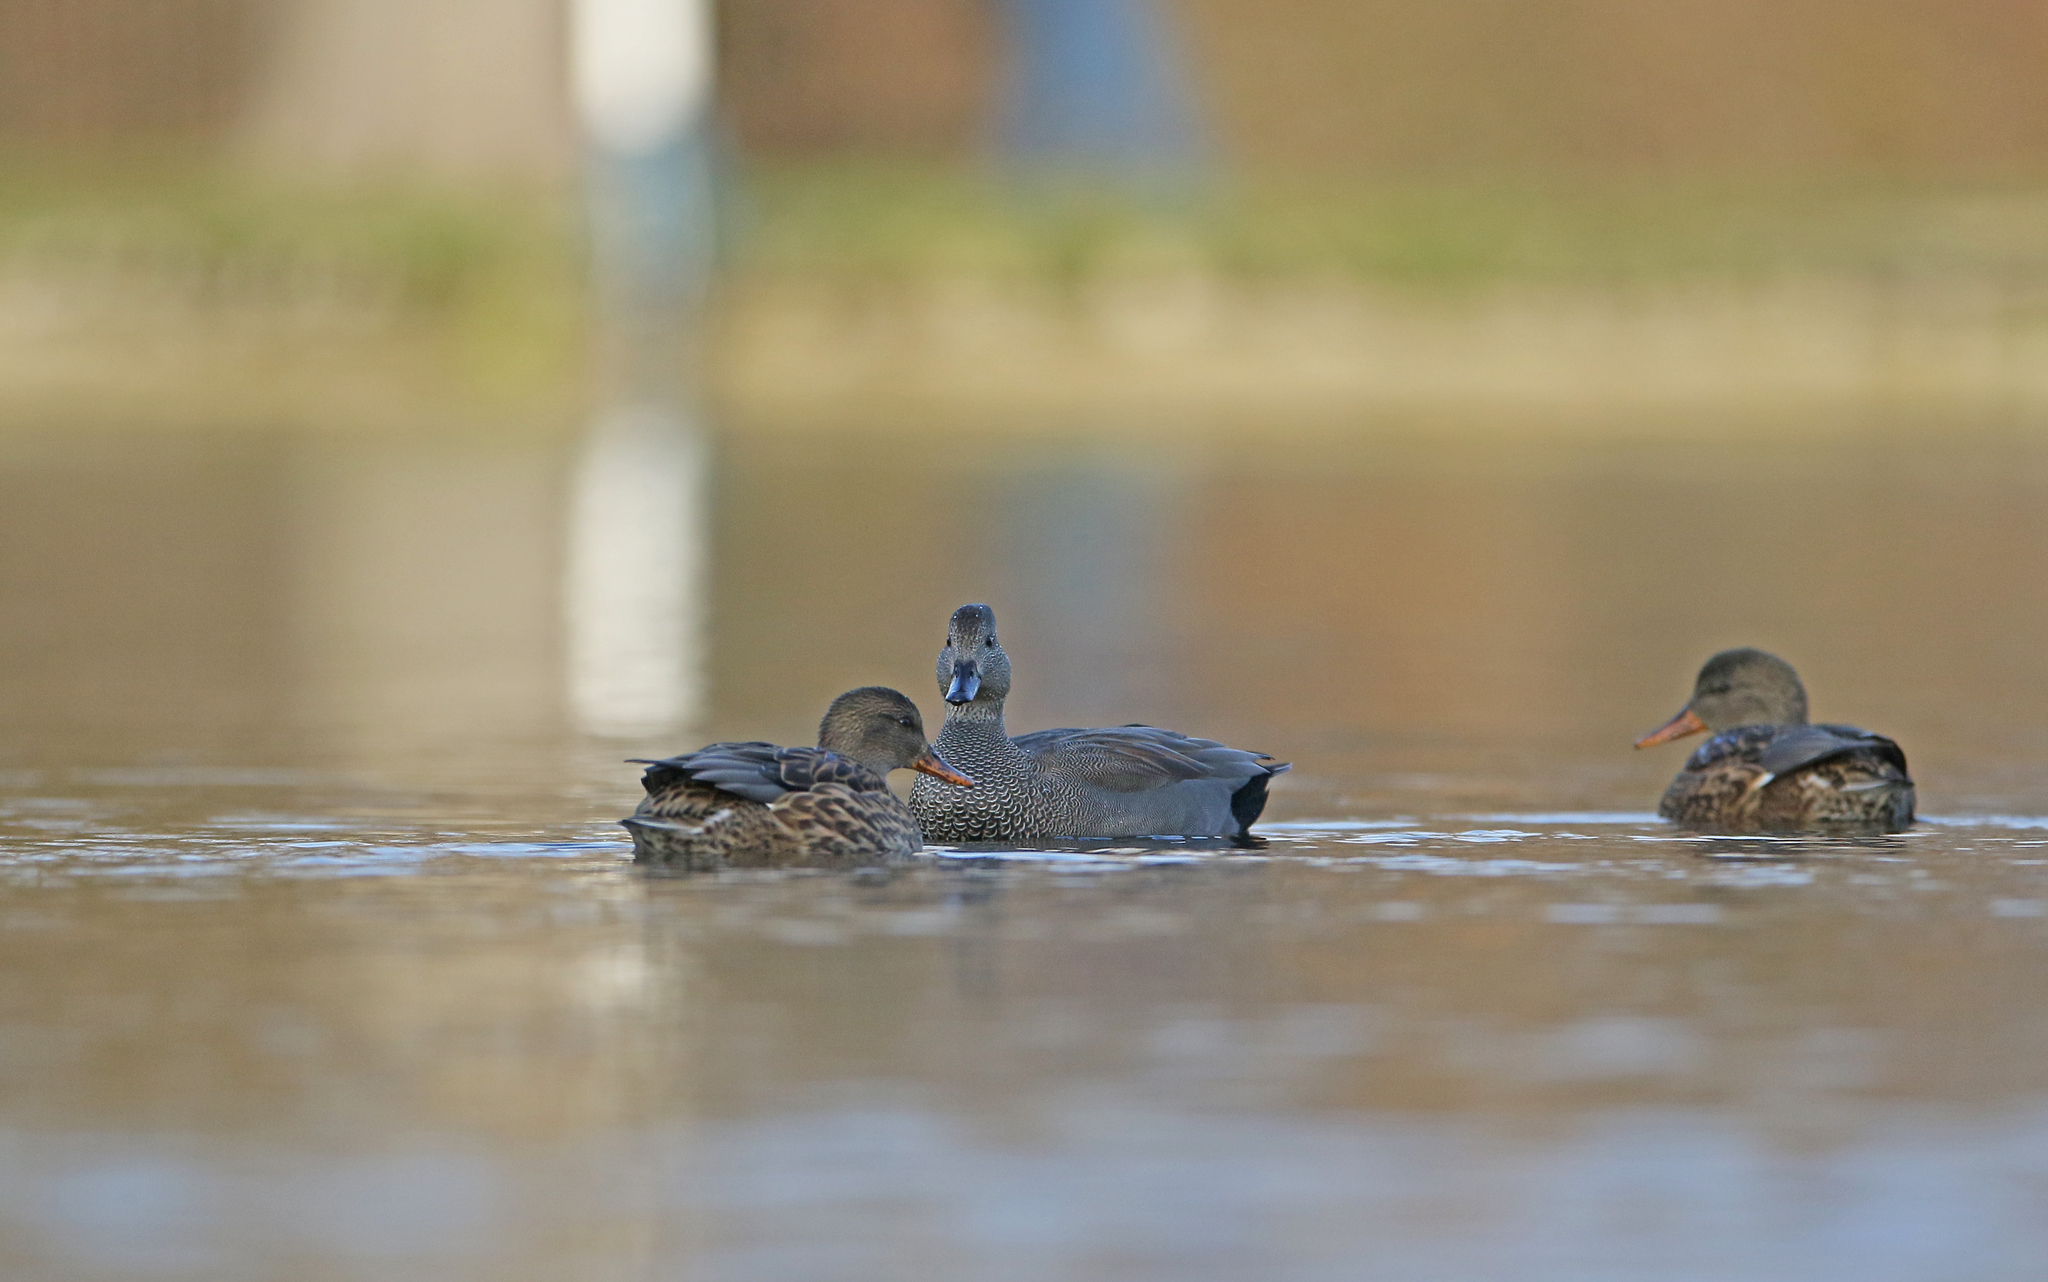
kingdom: Animalia
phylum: Chordata
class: Aves
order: Anseriformes
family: Anatidae
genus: Mareca
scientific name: Mareca strepera
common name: Gadwall
